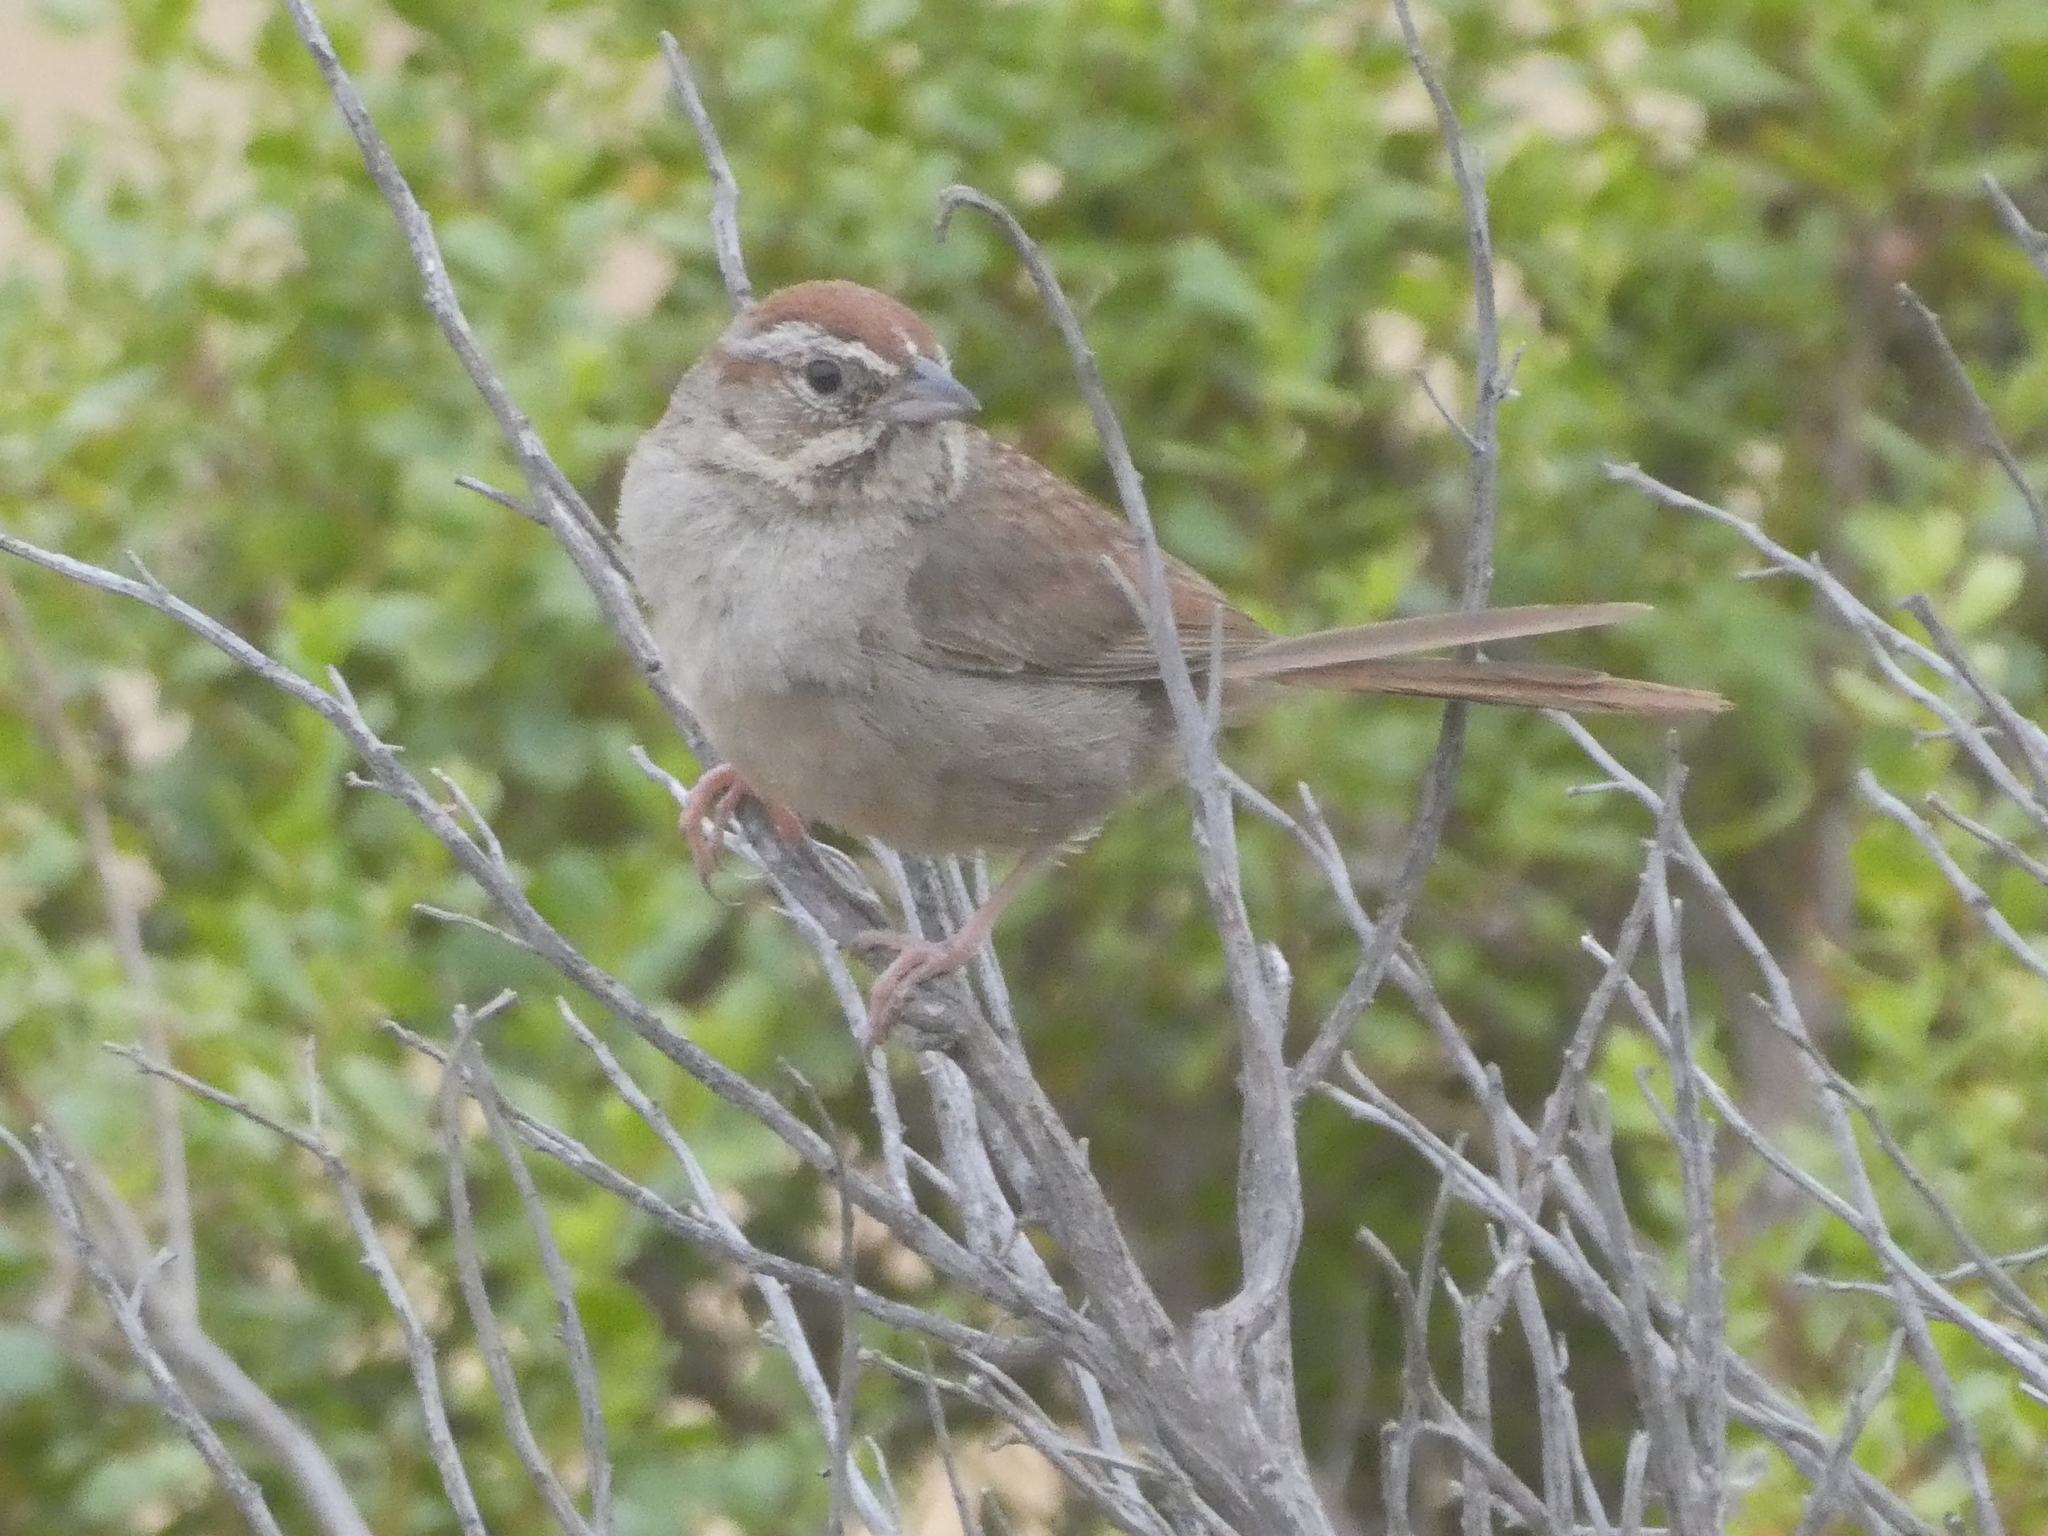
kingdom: Animalia
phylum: Chordata
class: Aves
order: Passeriformes
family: Passerellidae
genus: Aimophila
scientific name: Aimophila ruficeps
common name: Rufous-crowned sparrow
